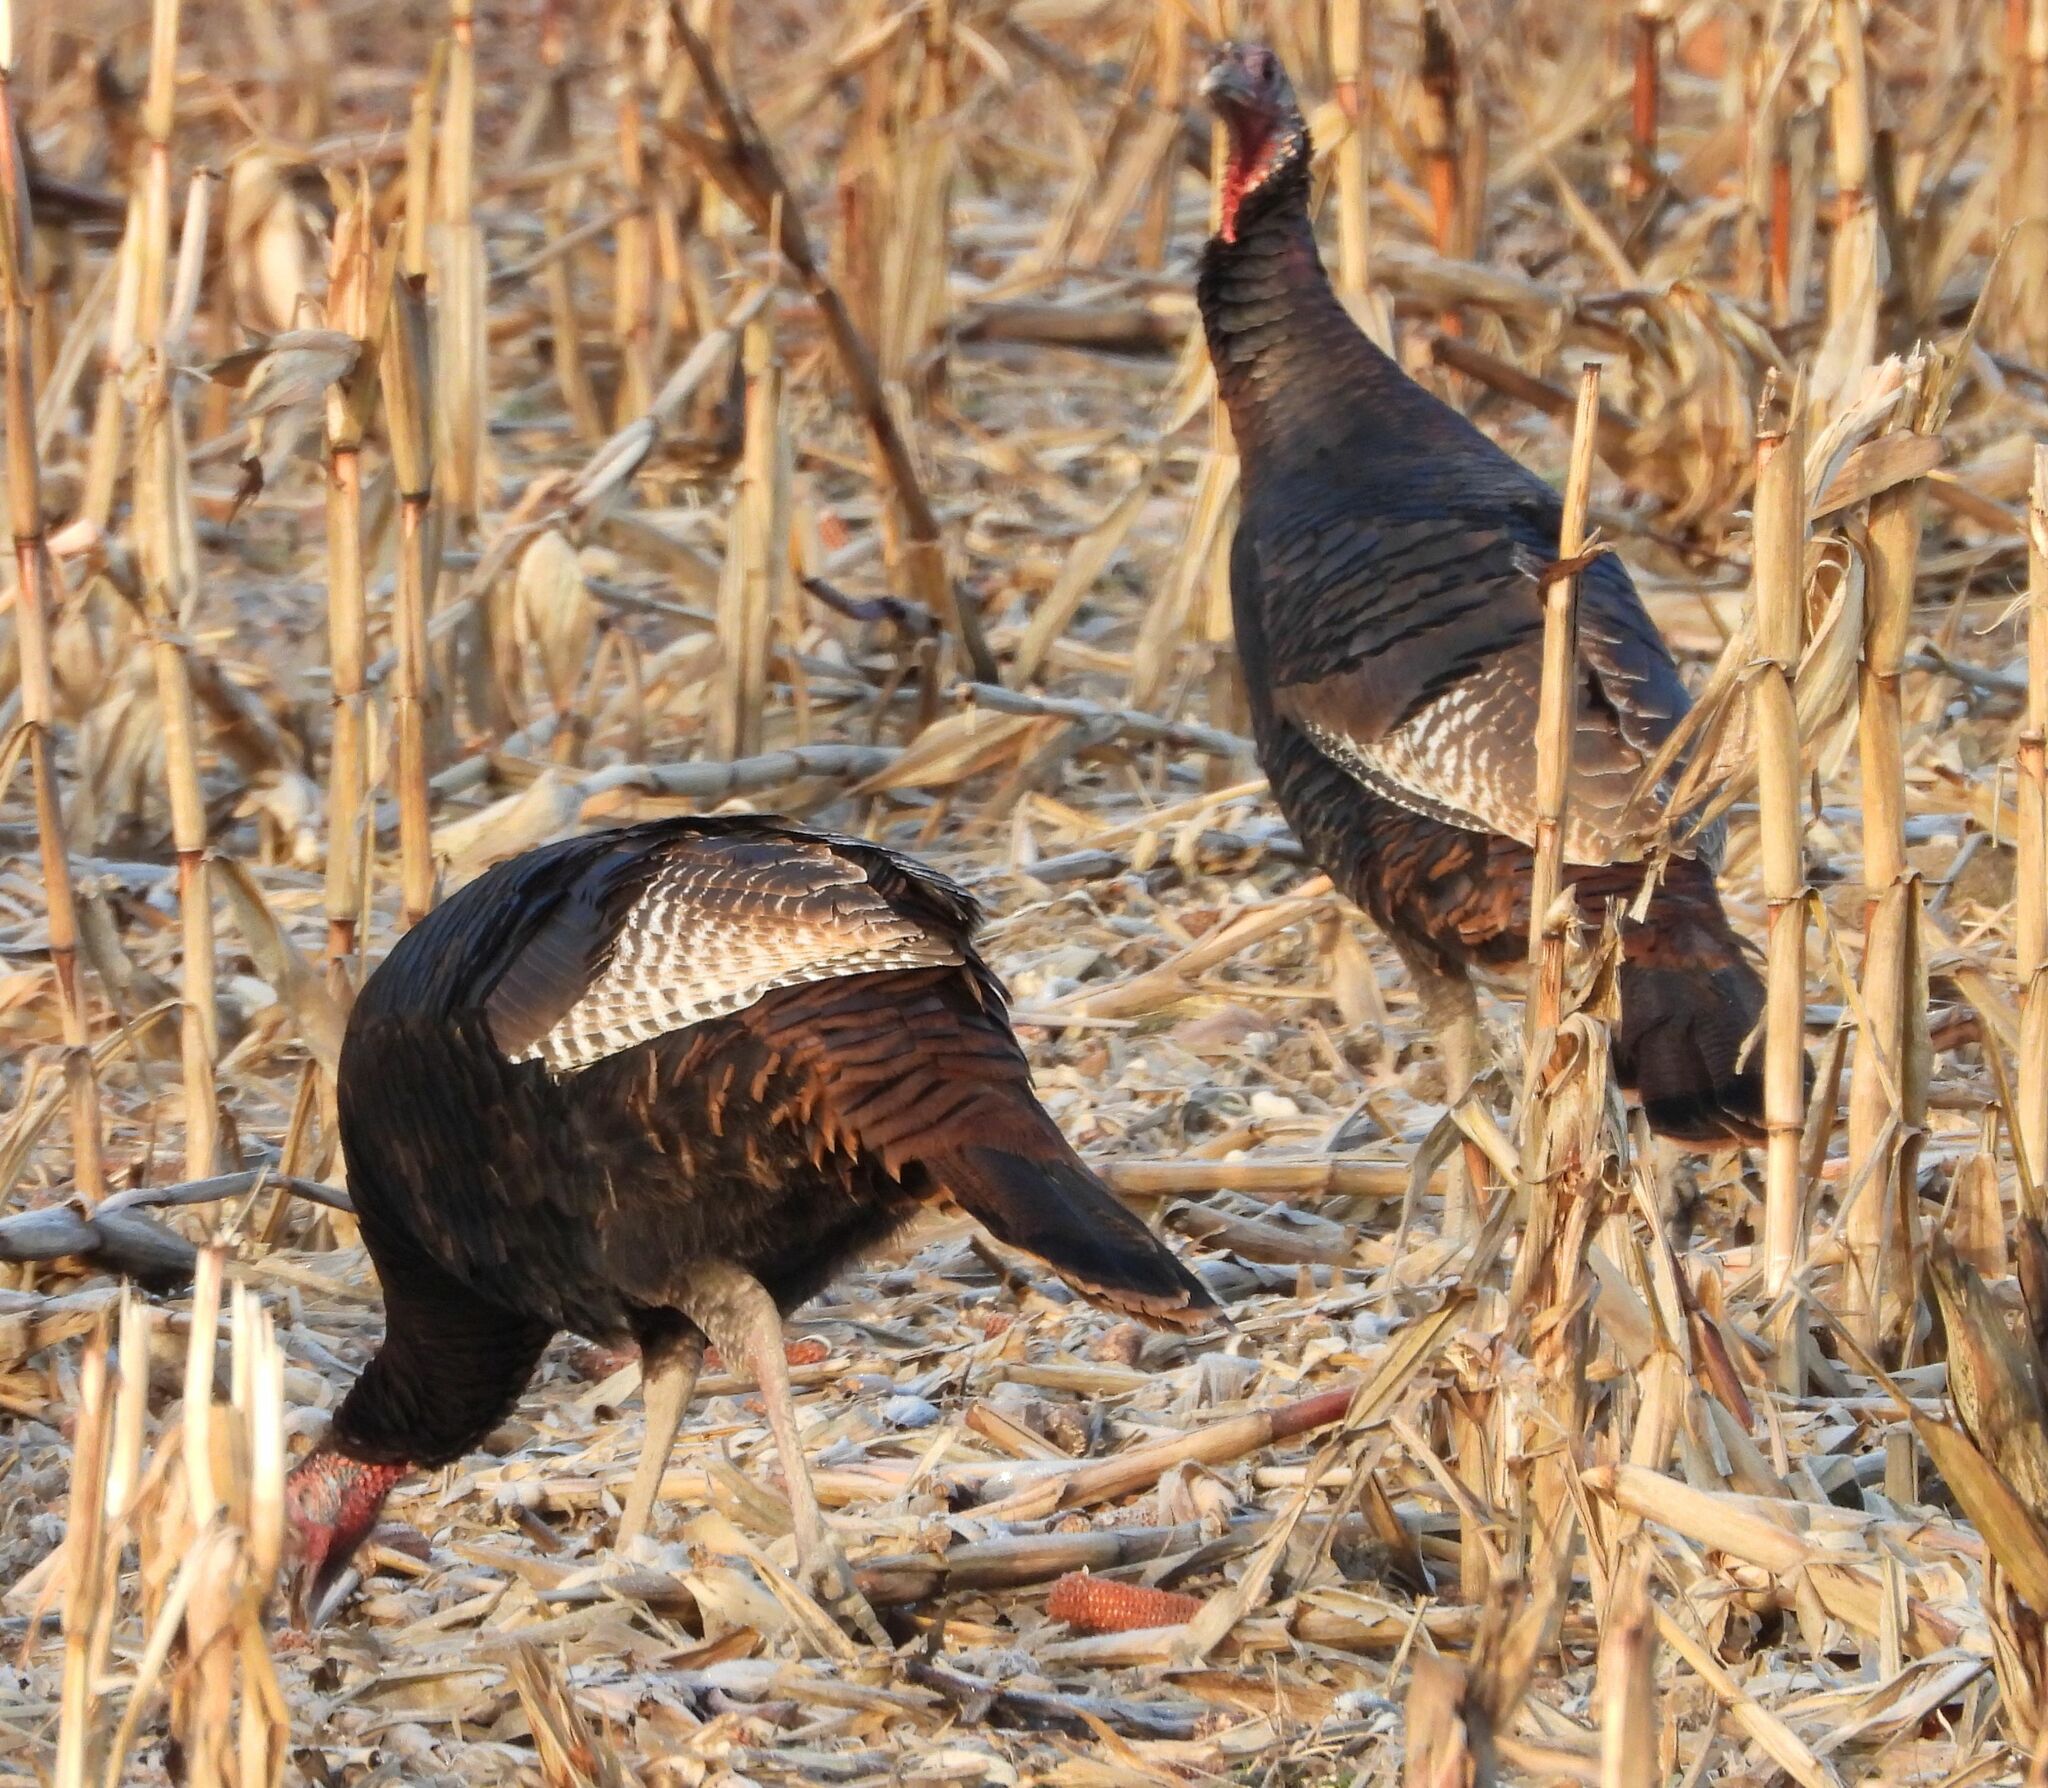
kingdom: Animalia
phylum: Chordata
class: Aves
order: Galliformes
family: Phasianidae
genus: Meleagris
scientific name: Meleagris gallopavo
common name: Wild turkey
